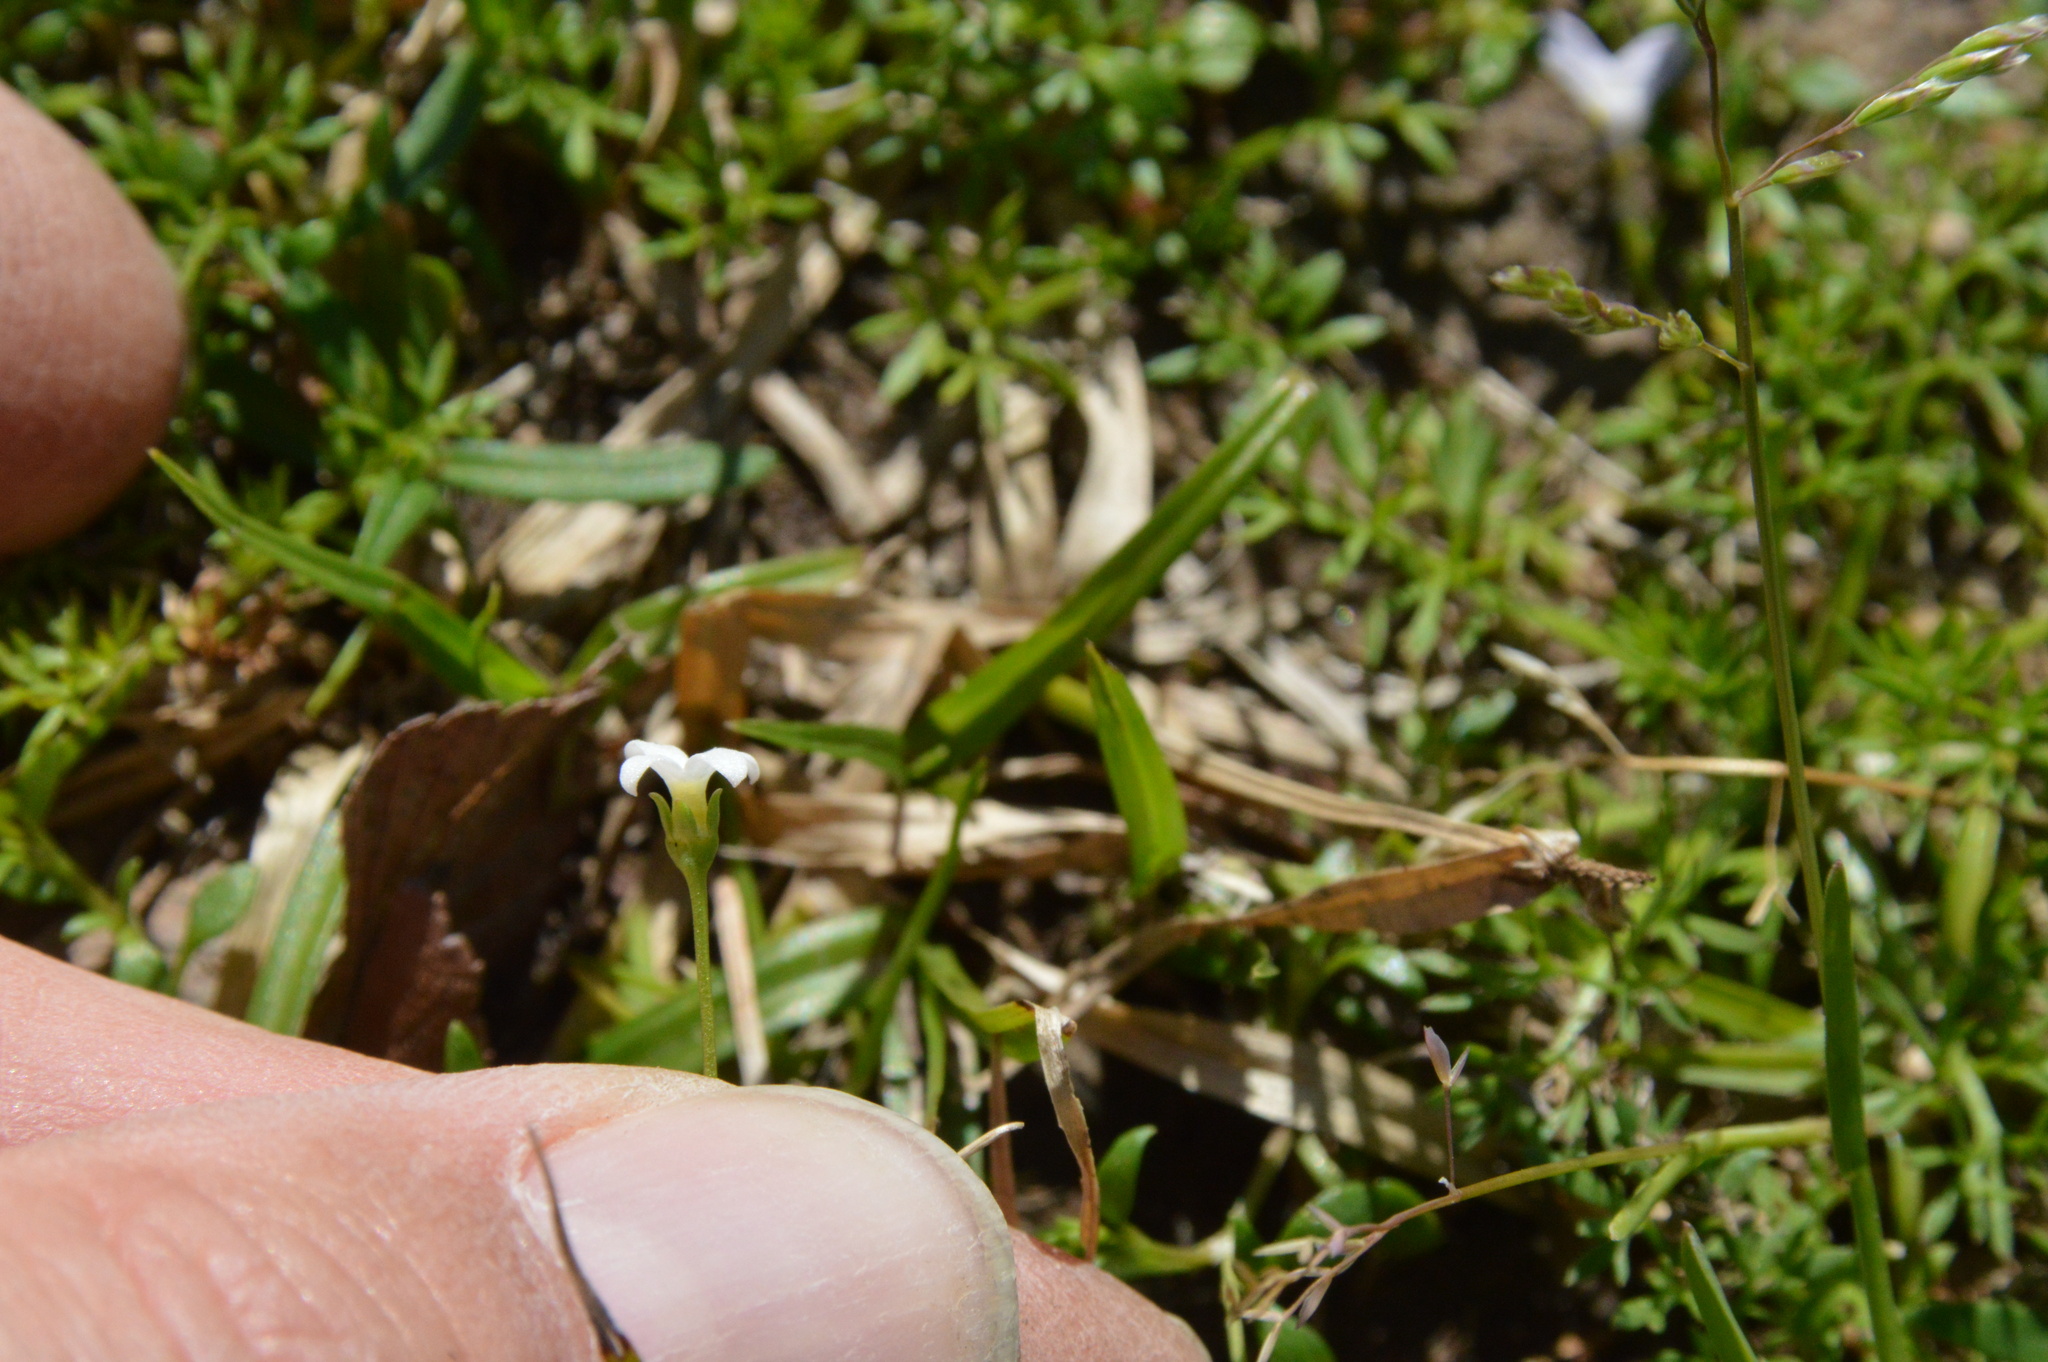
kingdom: Plantae
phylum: Tracheophyta
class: Magnoliopsida
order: Gentianales
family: Rubiaceae
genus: Houstonia
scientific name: Houstonia micrantha
